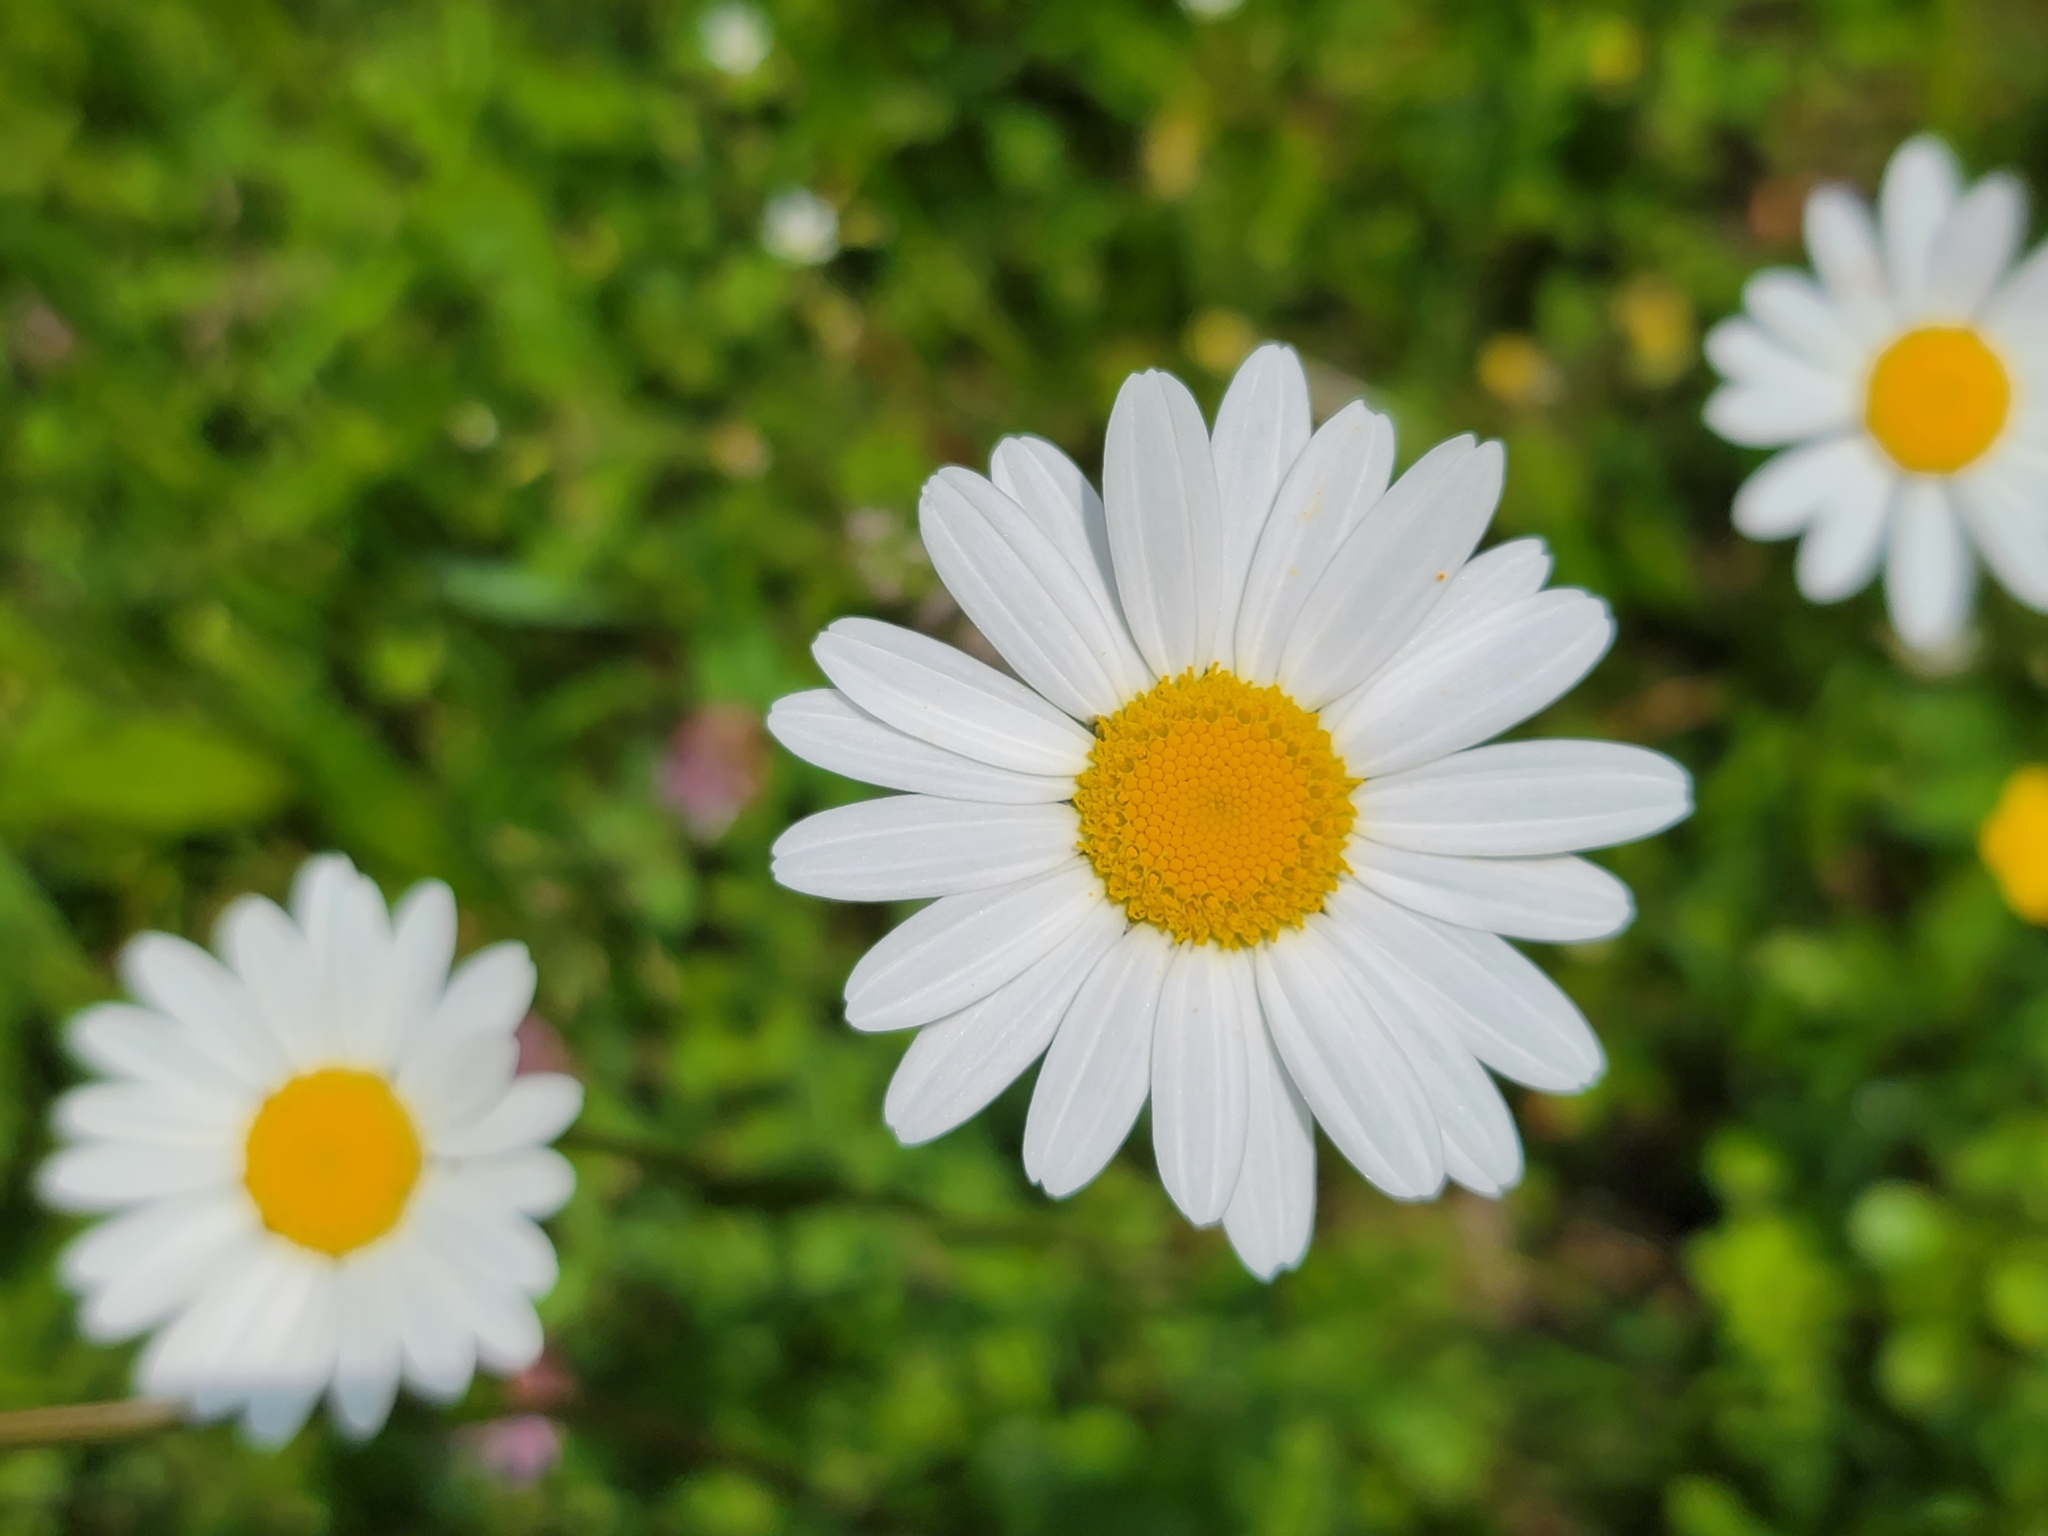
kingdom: Plantae
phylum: Tracheophyta
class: Magnoliopsida
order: Asterales
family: Asteraceae
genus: Leucanthemum
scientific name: Leucanthemum ircutianum
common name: Daisy
